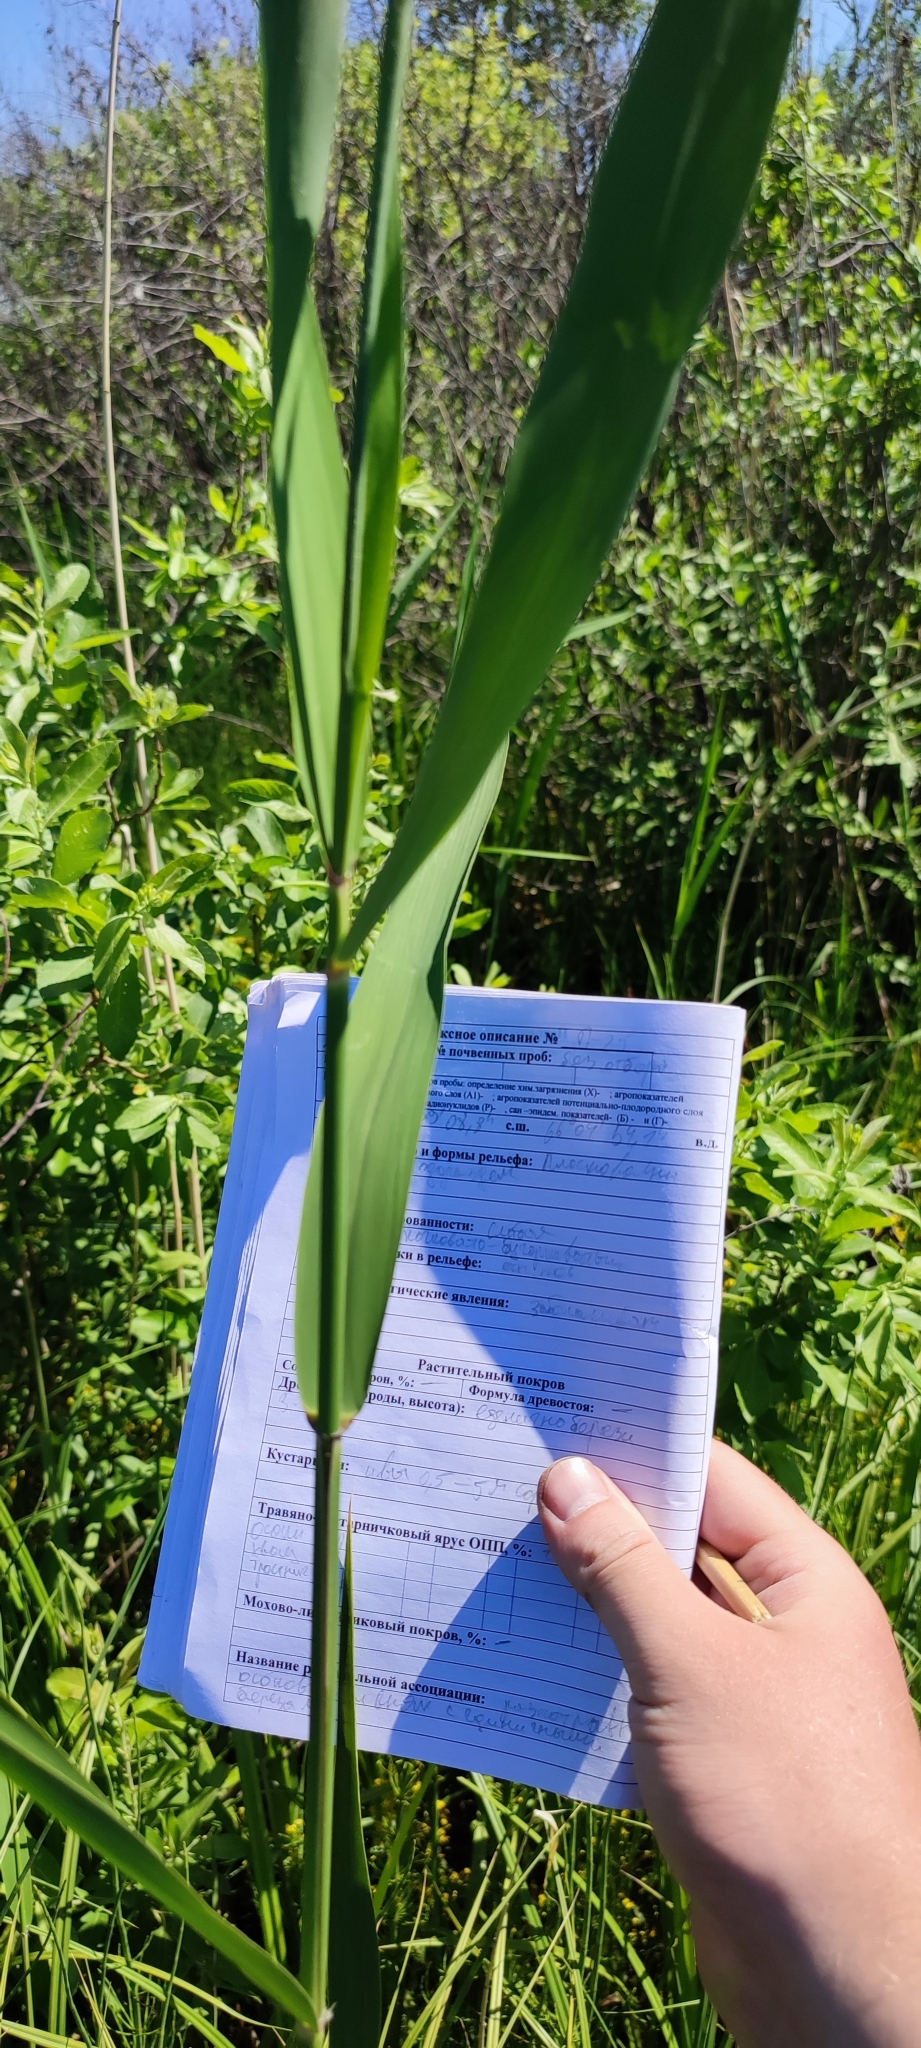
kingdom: Plantae
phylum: Tracheophyta
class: Liliopsida
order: Poales
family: Poaceae
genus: Phragmites
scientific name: Phragmites australis
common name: Common reed
